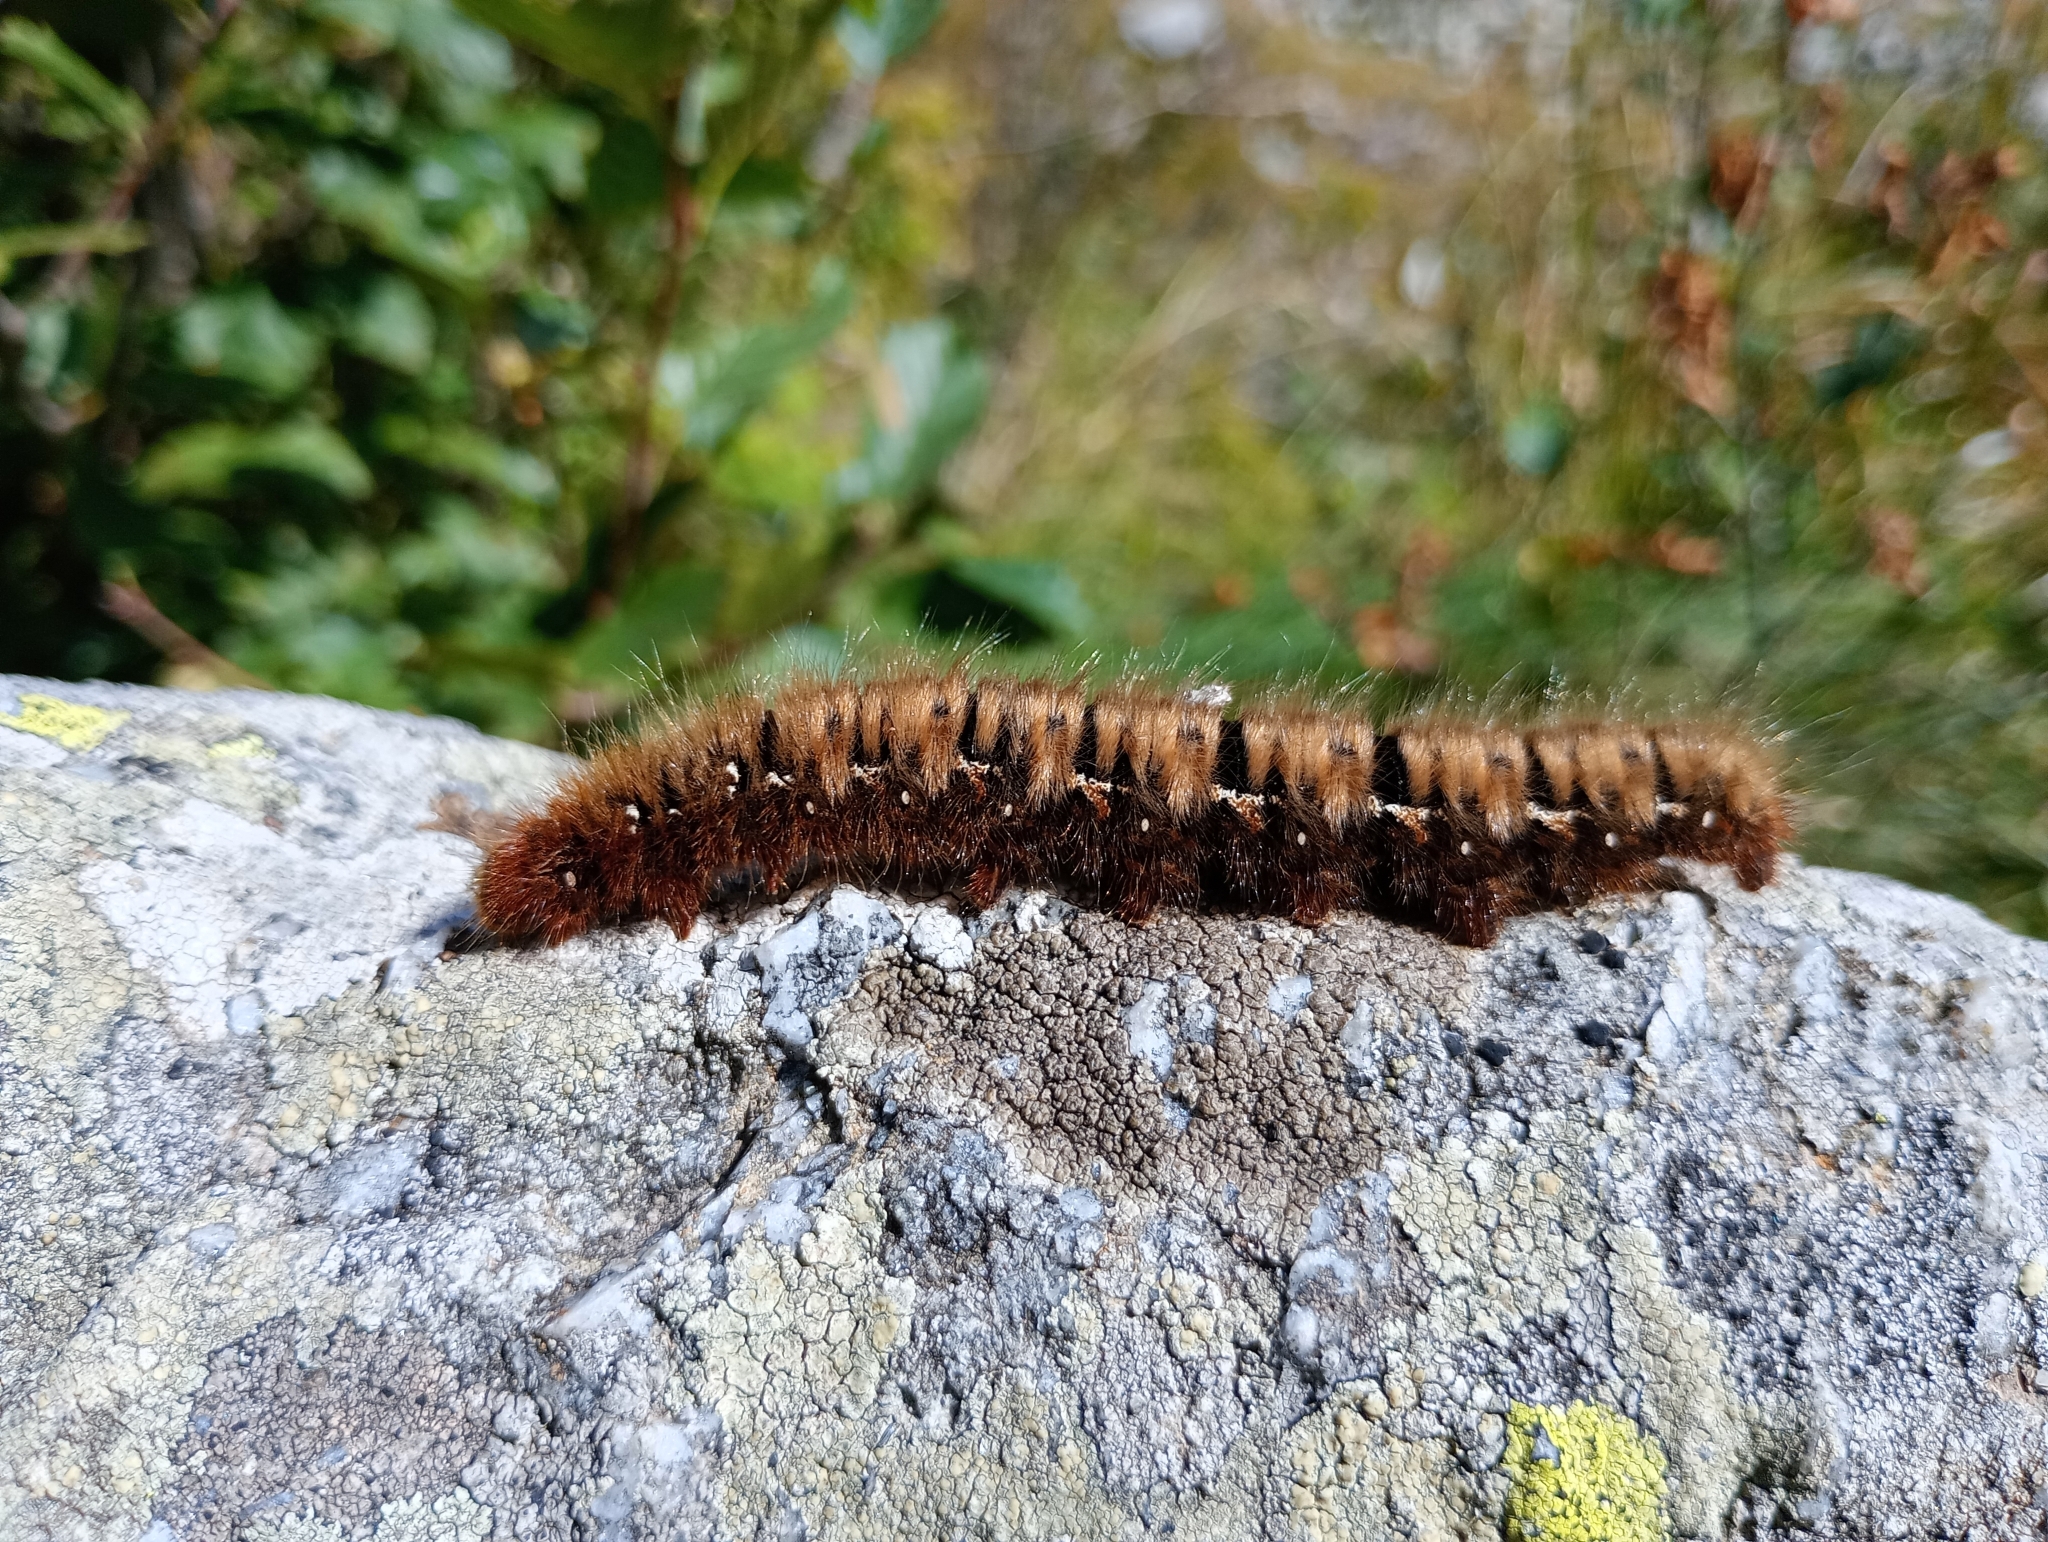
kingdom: Animalia
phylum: Arthropoda
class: Insecta
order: Lepidoptera
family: Lasiocampidae
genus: Lasiocampa
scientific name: Lasiocampa quercus
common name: Oak eggar
